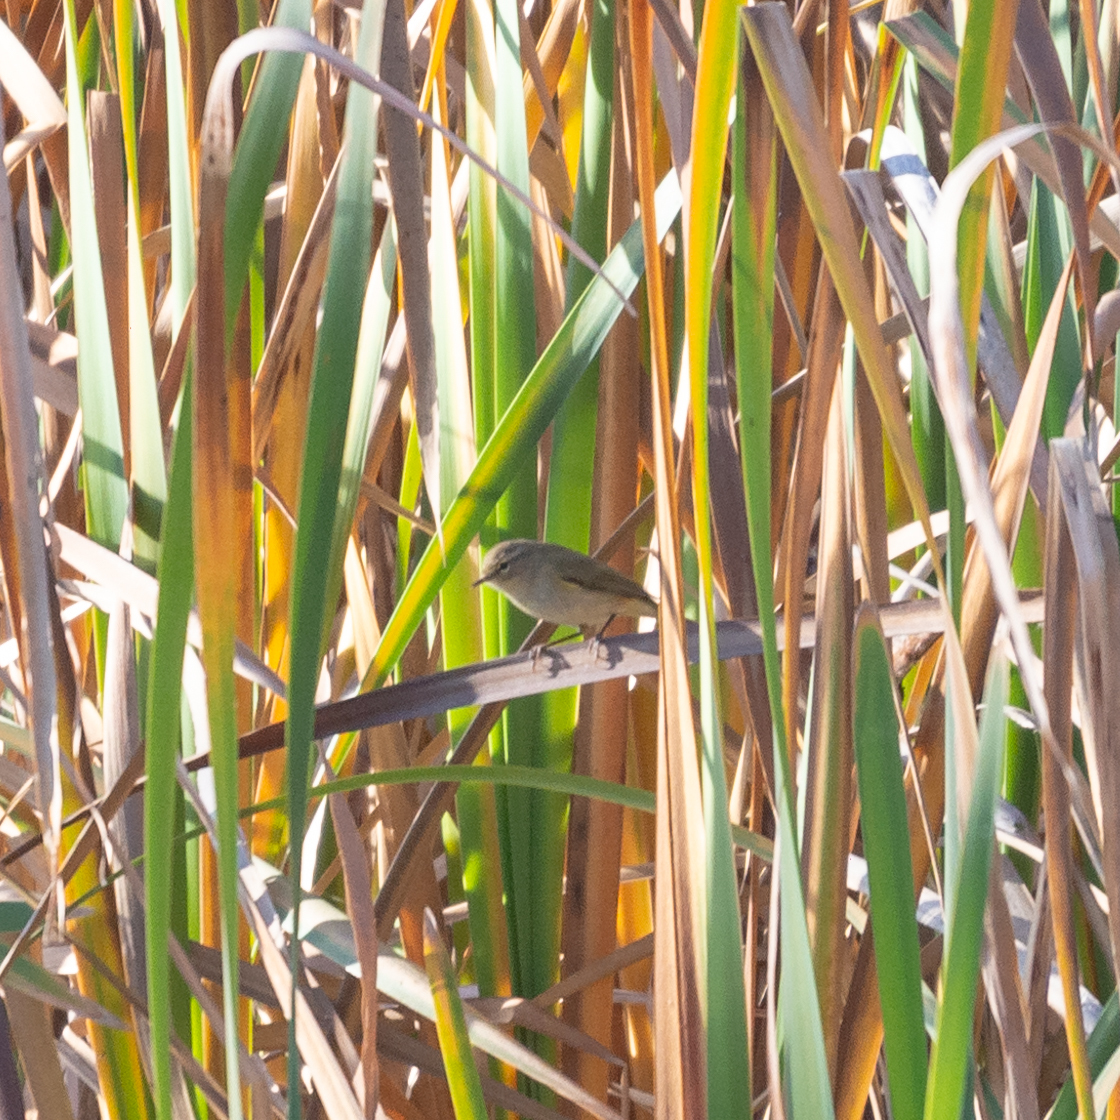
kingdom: Animalia
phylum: Chordata
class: Aves
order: Passeriformes
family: Phylloscopidae
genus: Phylloscopus
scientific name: Phylloscopus collybita
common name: Common chiffchaff
